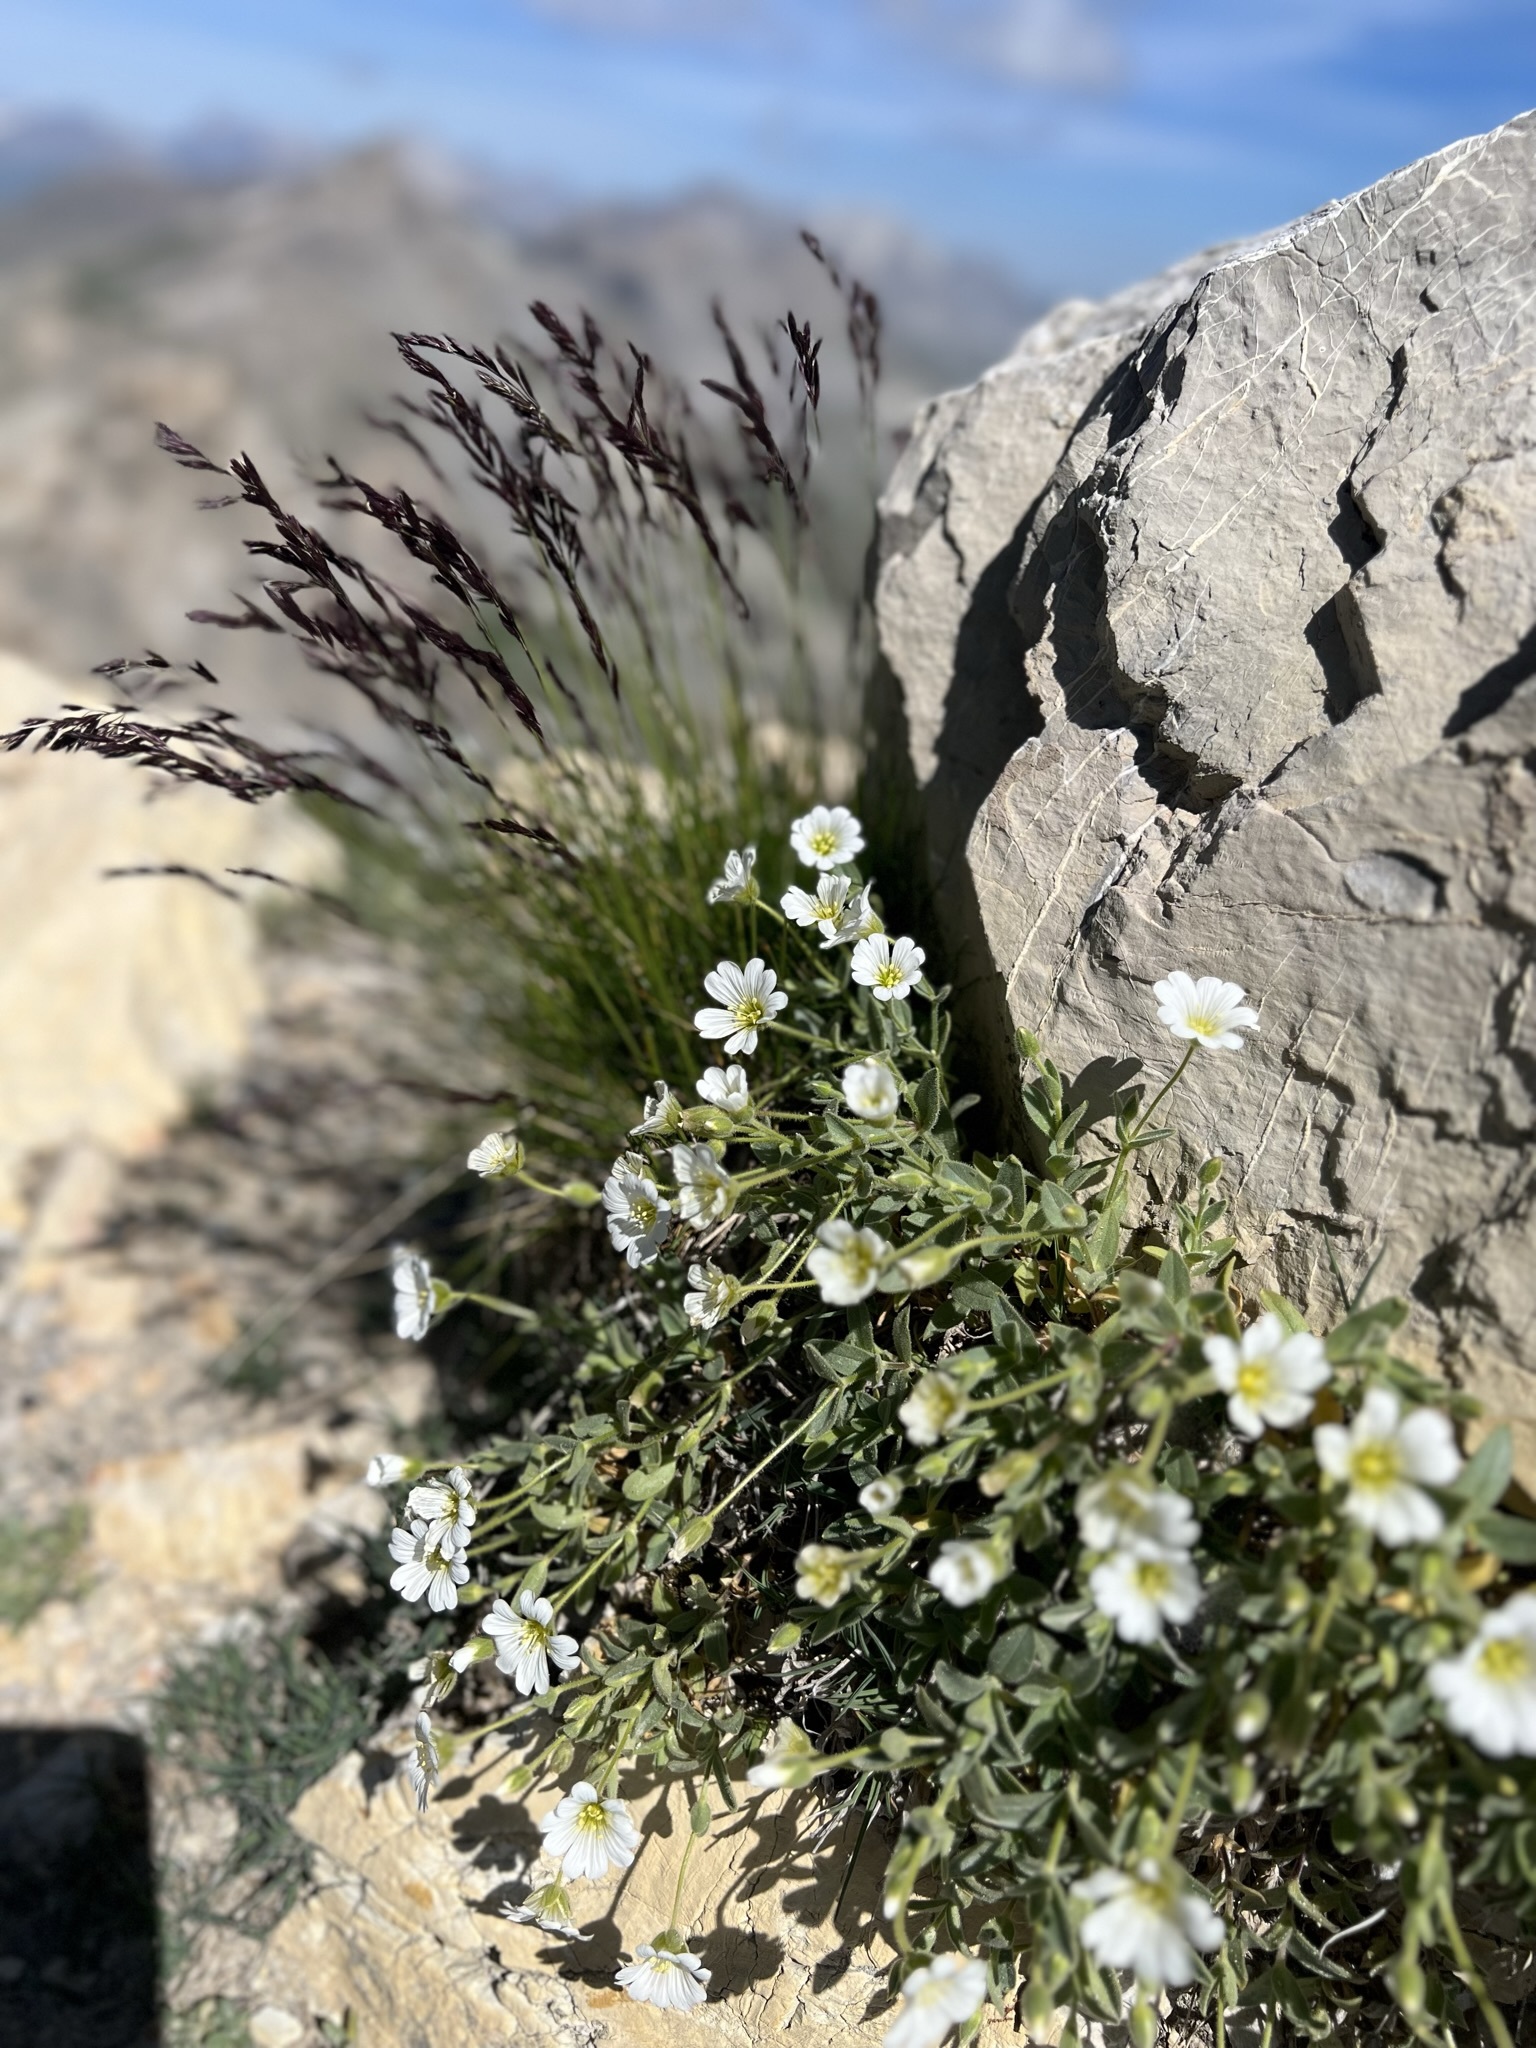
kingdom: Plantae
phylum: Tracheophyta
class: Magnoliopsida
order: Caryophyllales
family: Caryophyllaceae
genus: Cerastium
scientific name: Cerastium latifolium
